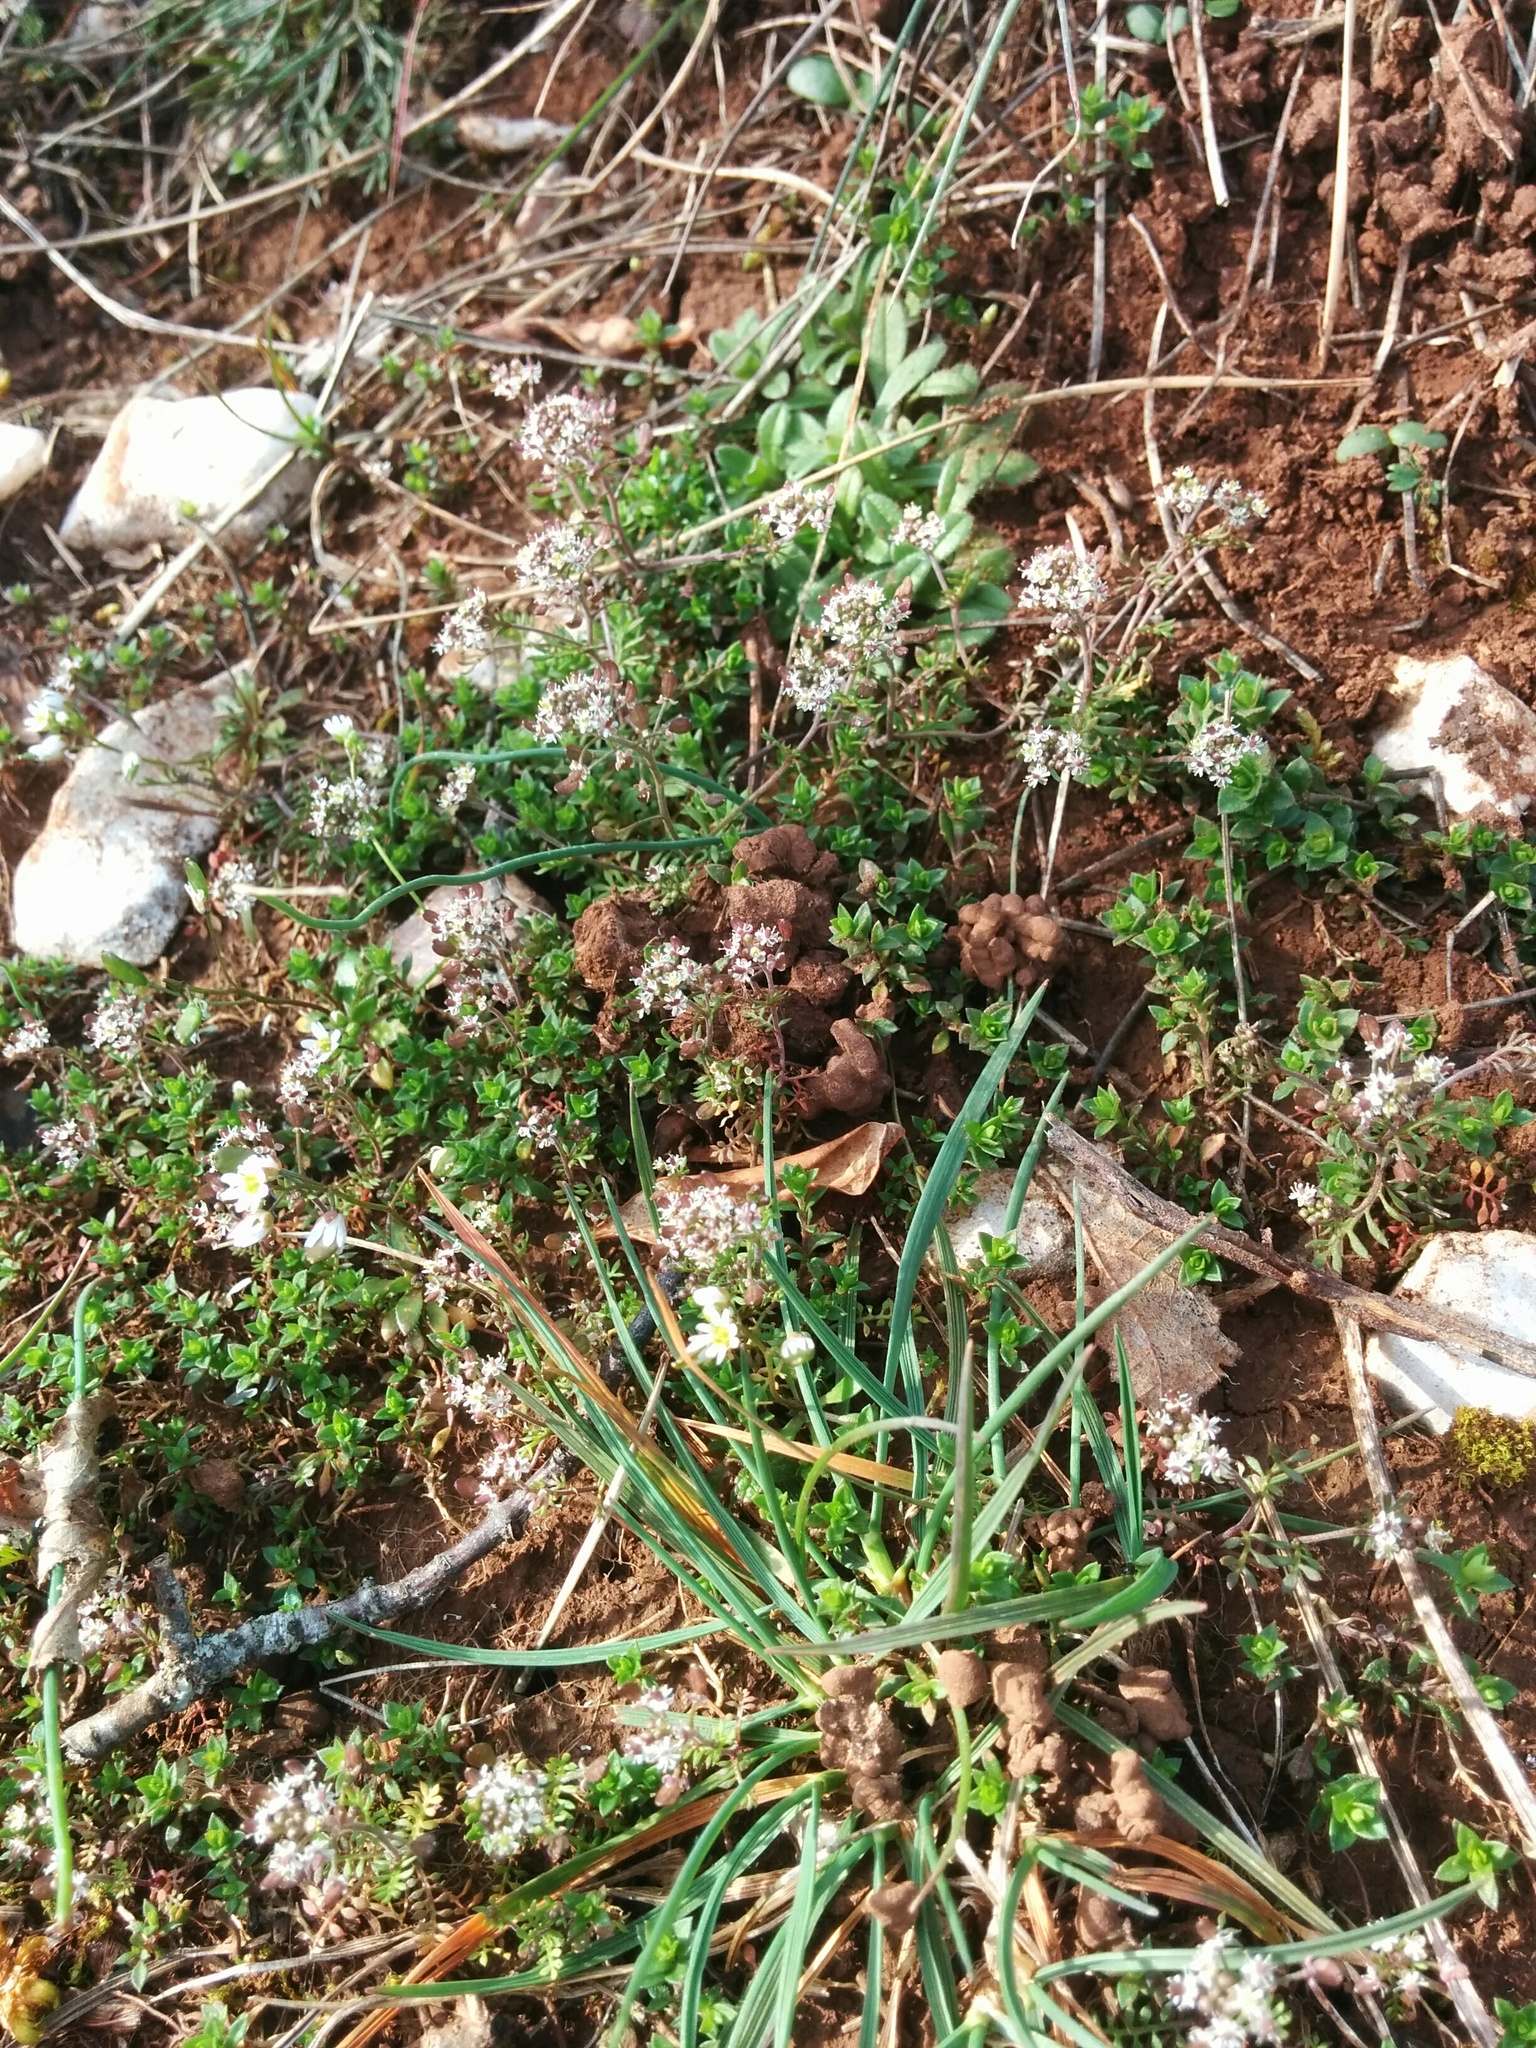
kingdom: Plantae
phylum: Tracheophyta
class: Magnoliopsida
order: Brassicales
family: Brassicaceae
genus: Hornungia
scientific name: Hornungia petraea
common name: Hutchinsia
